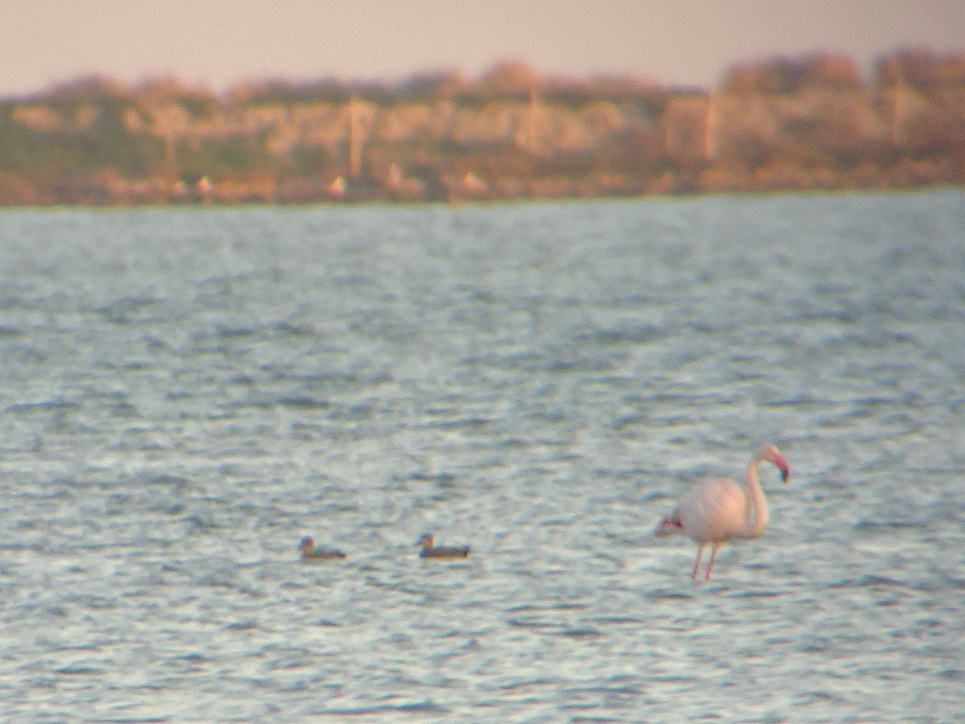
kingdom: Animalia
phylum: Chordata
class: Aves
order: Anseriformes
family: Anatidae
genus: Mareca
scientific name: Mareca strepera
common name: Gadwall
